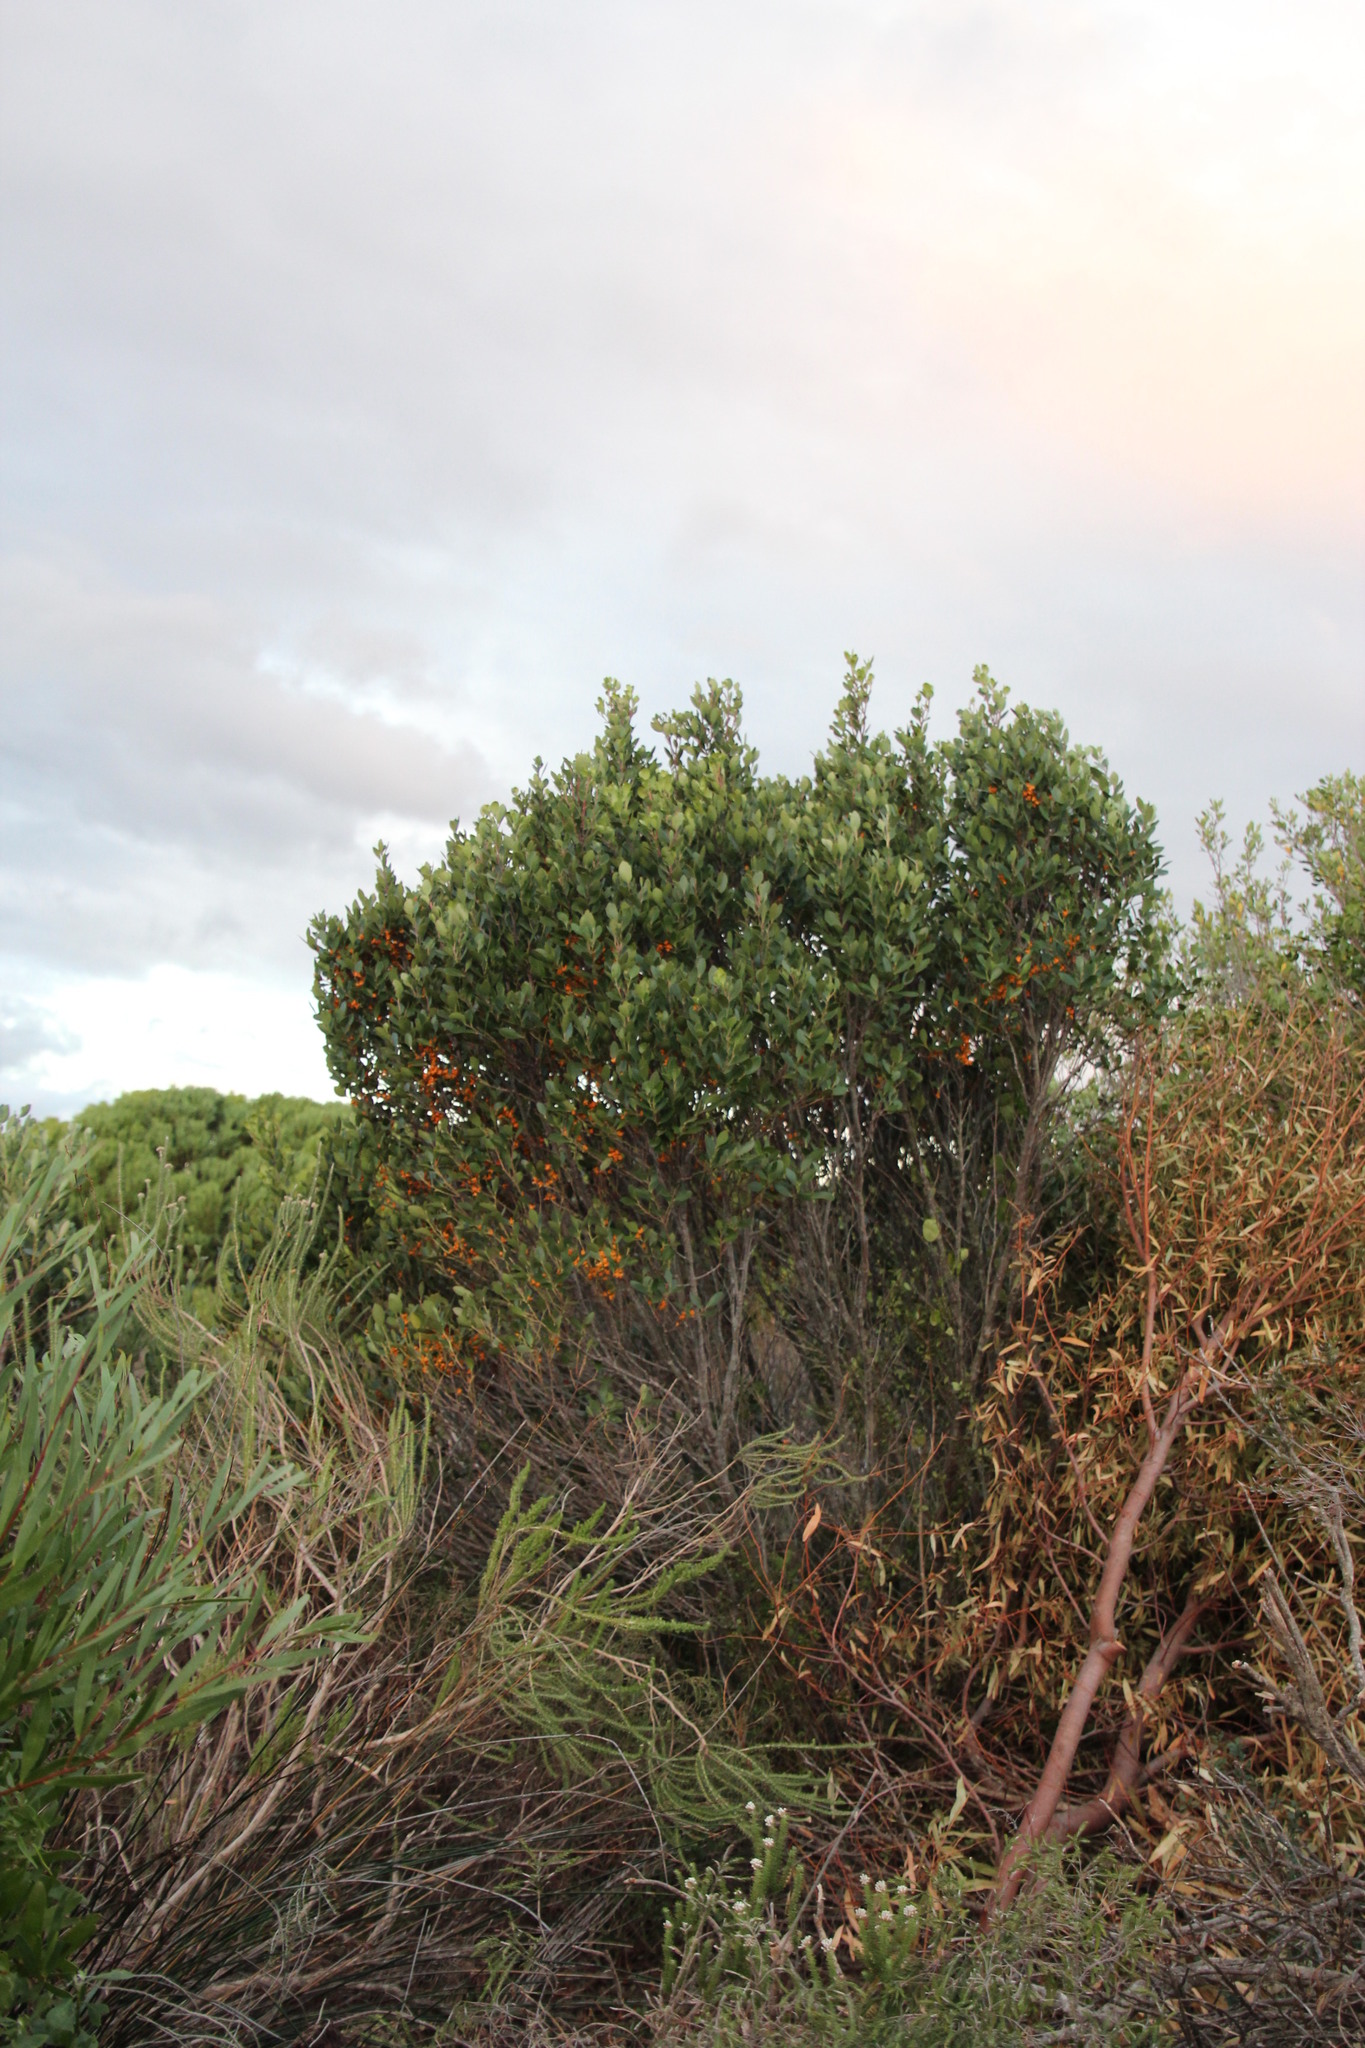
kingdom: Plantae
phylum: Tracheophyta
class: Magnoliopsida
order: Celastrales
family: Celastraceae
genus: Pterocelastrus
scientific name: Pterocelastrus tricuspidatus
